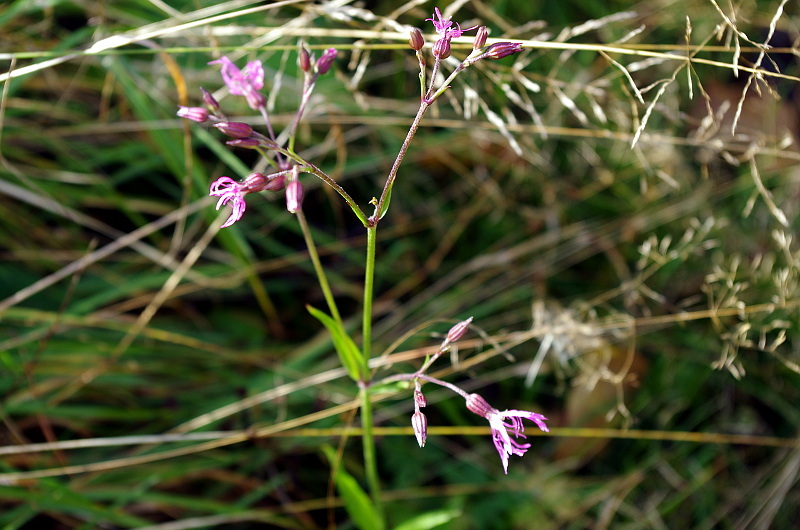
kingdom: Plantae
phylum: Tracheophyta
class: Magnoliopsida
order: Caryophyllales
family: Caryophyllaceae
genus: Silene
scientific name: Silene flos-cuculi
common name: Ragged-robin
